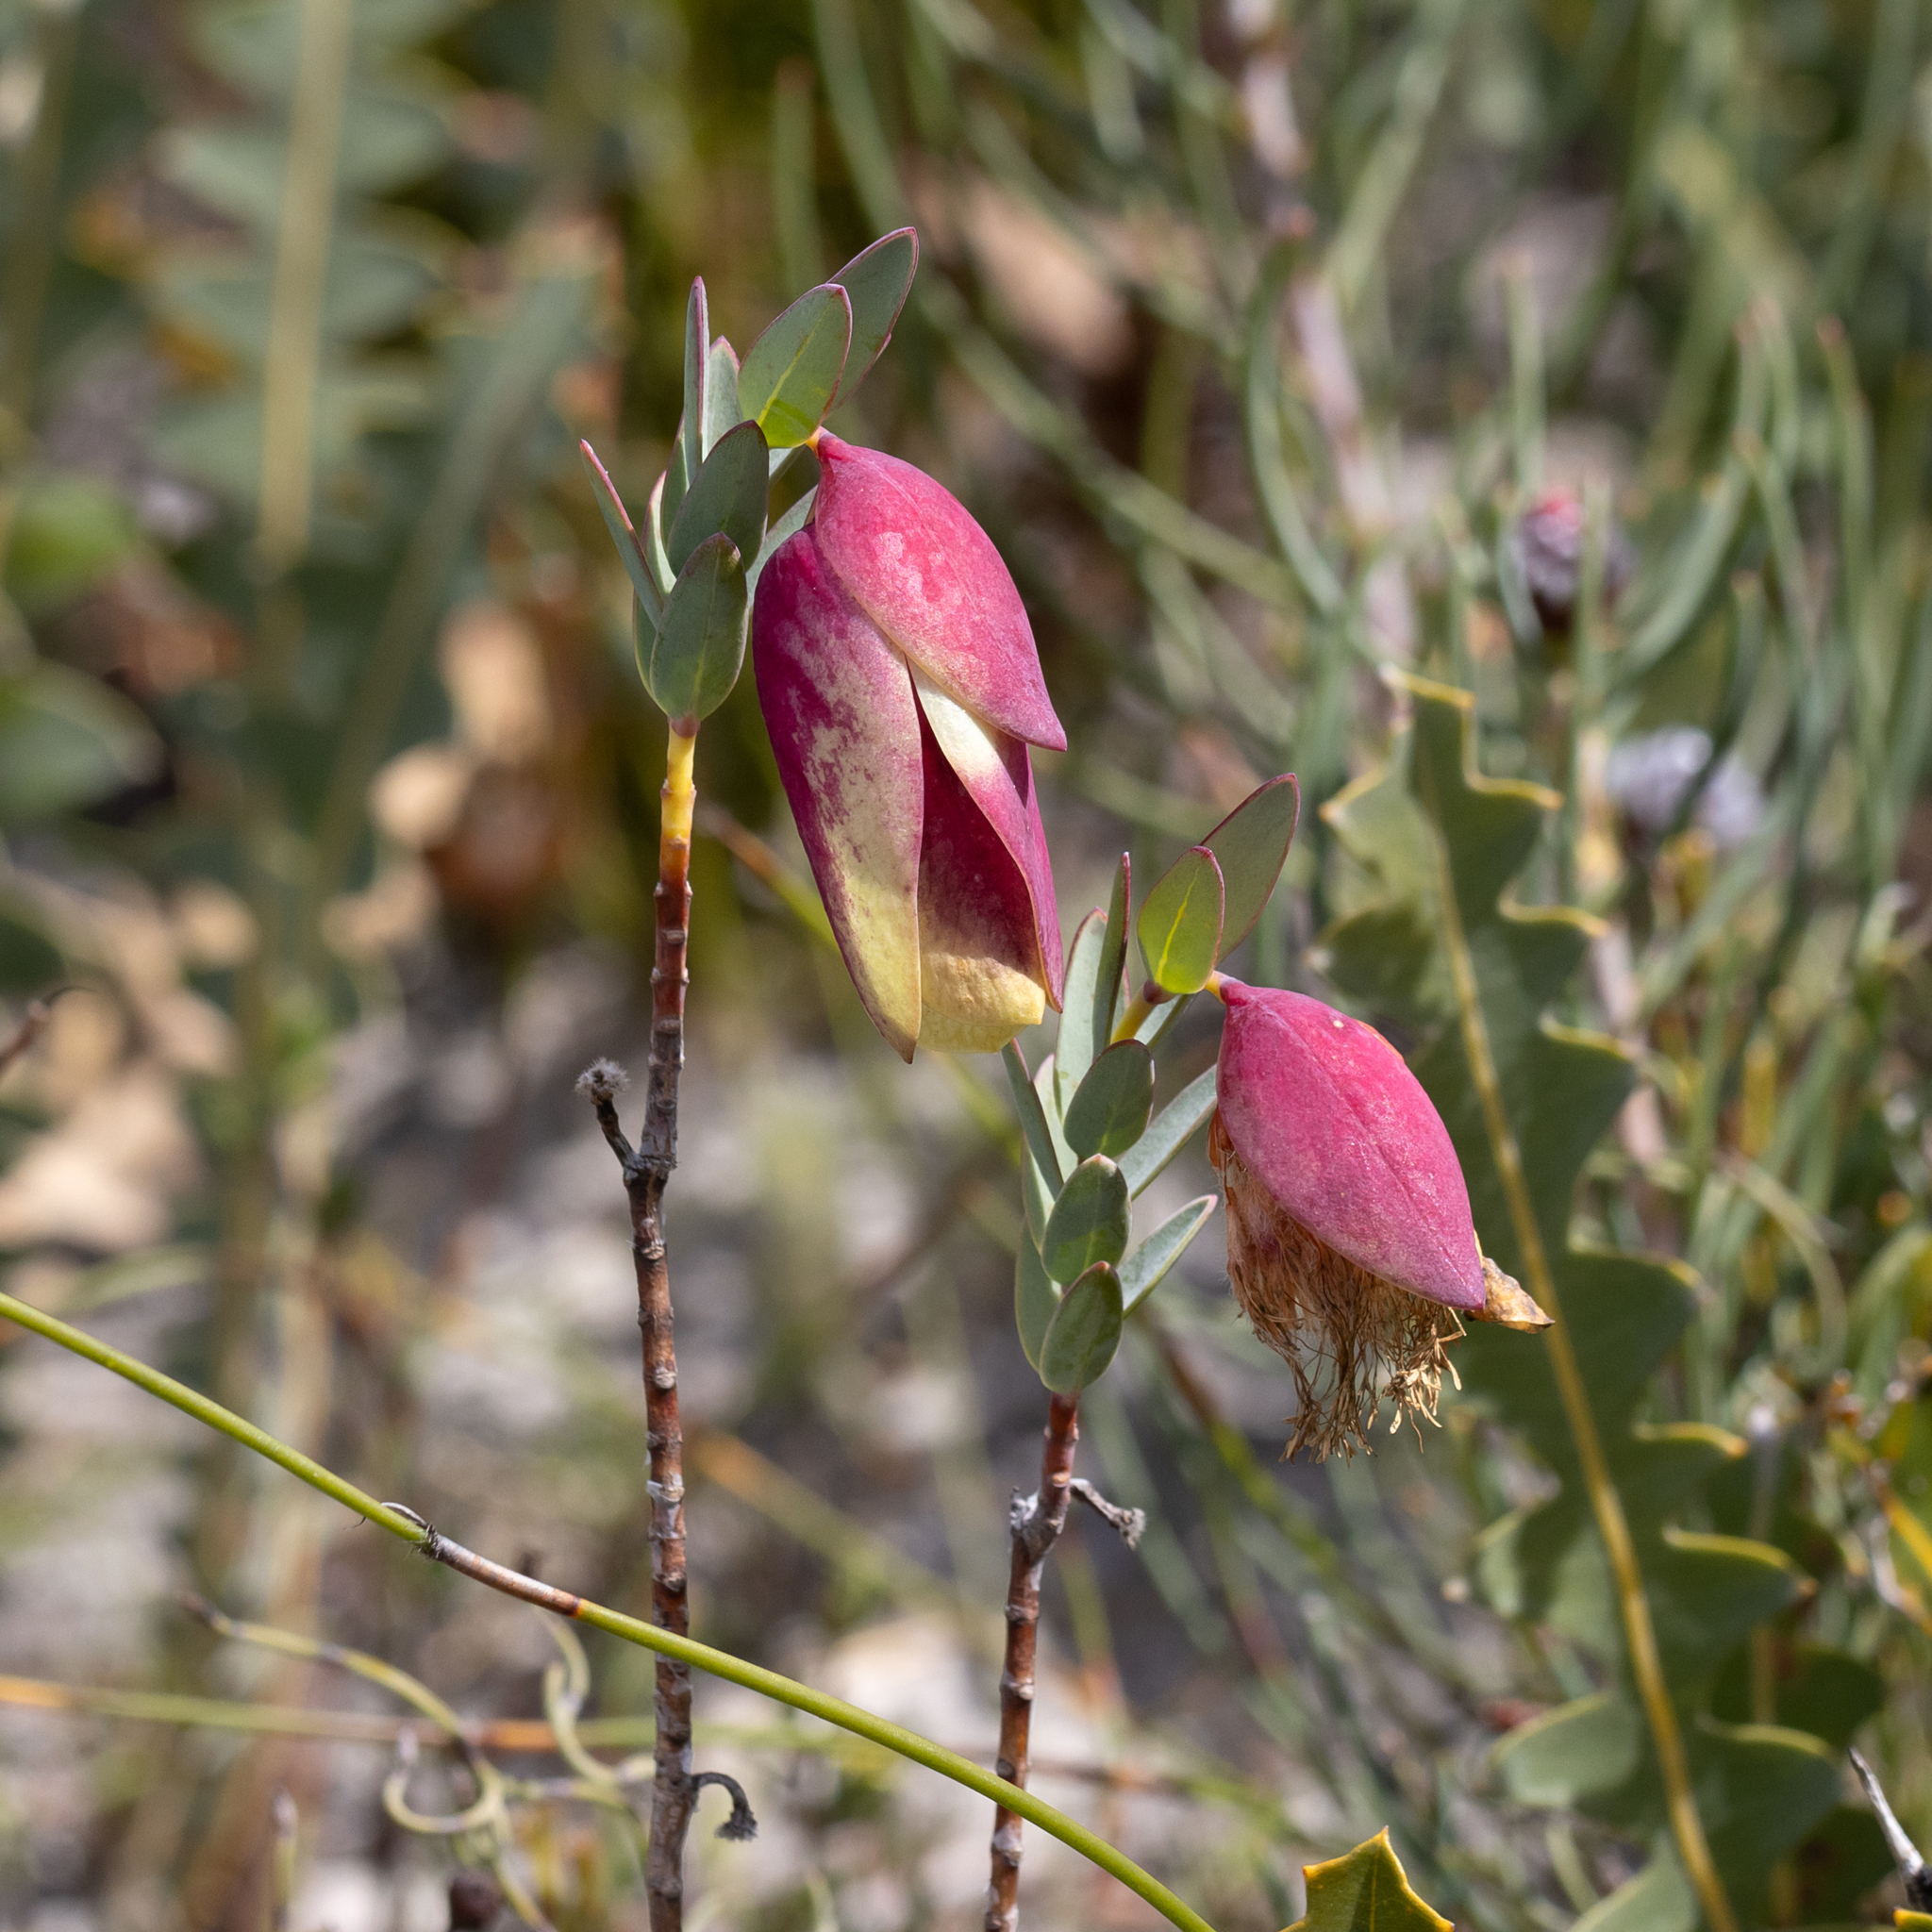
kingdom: Plantae
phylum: Tracheophyta
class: Magnoliopsida
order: Malvales
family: Thymelaeaceae
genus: Pimelea
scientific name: Pimelea physodes
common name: Qualup-bell
